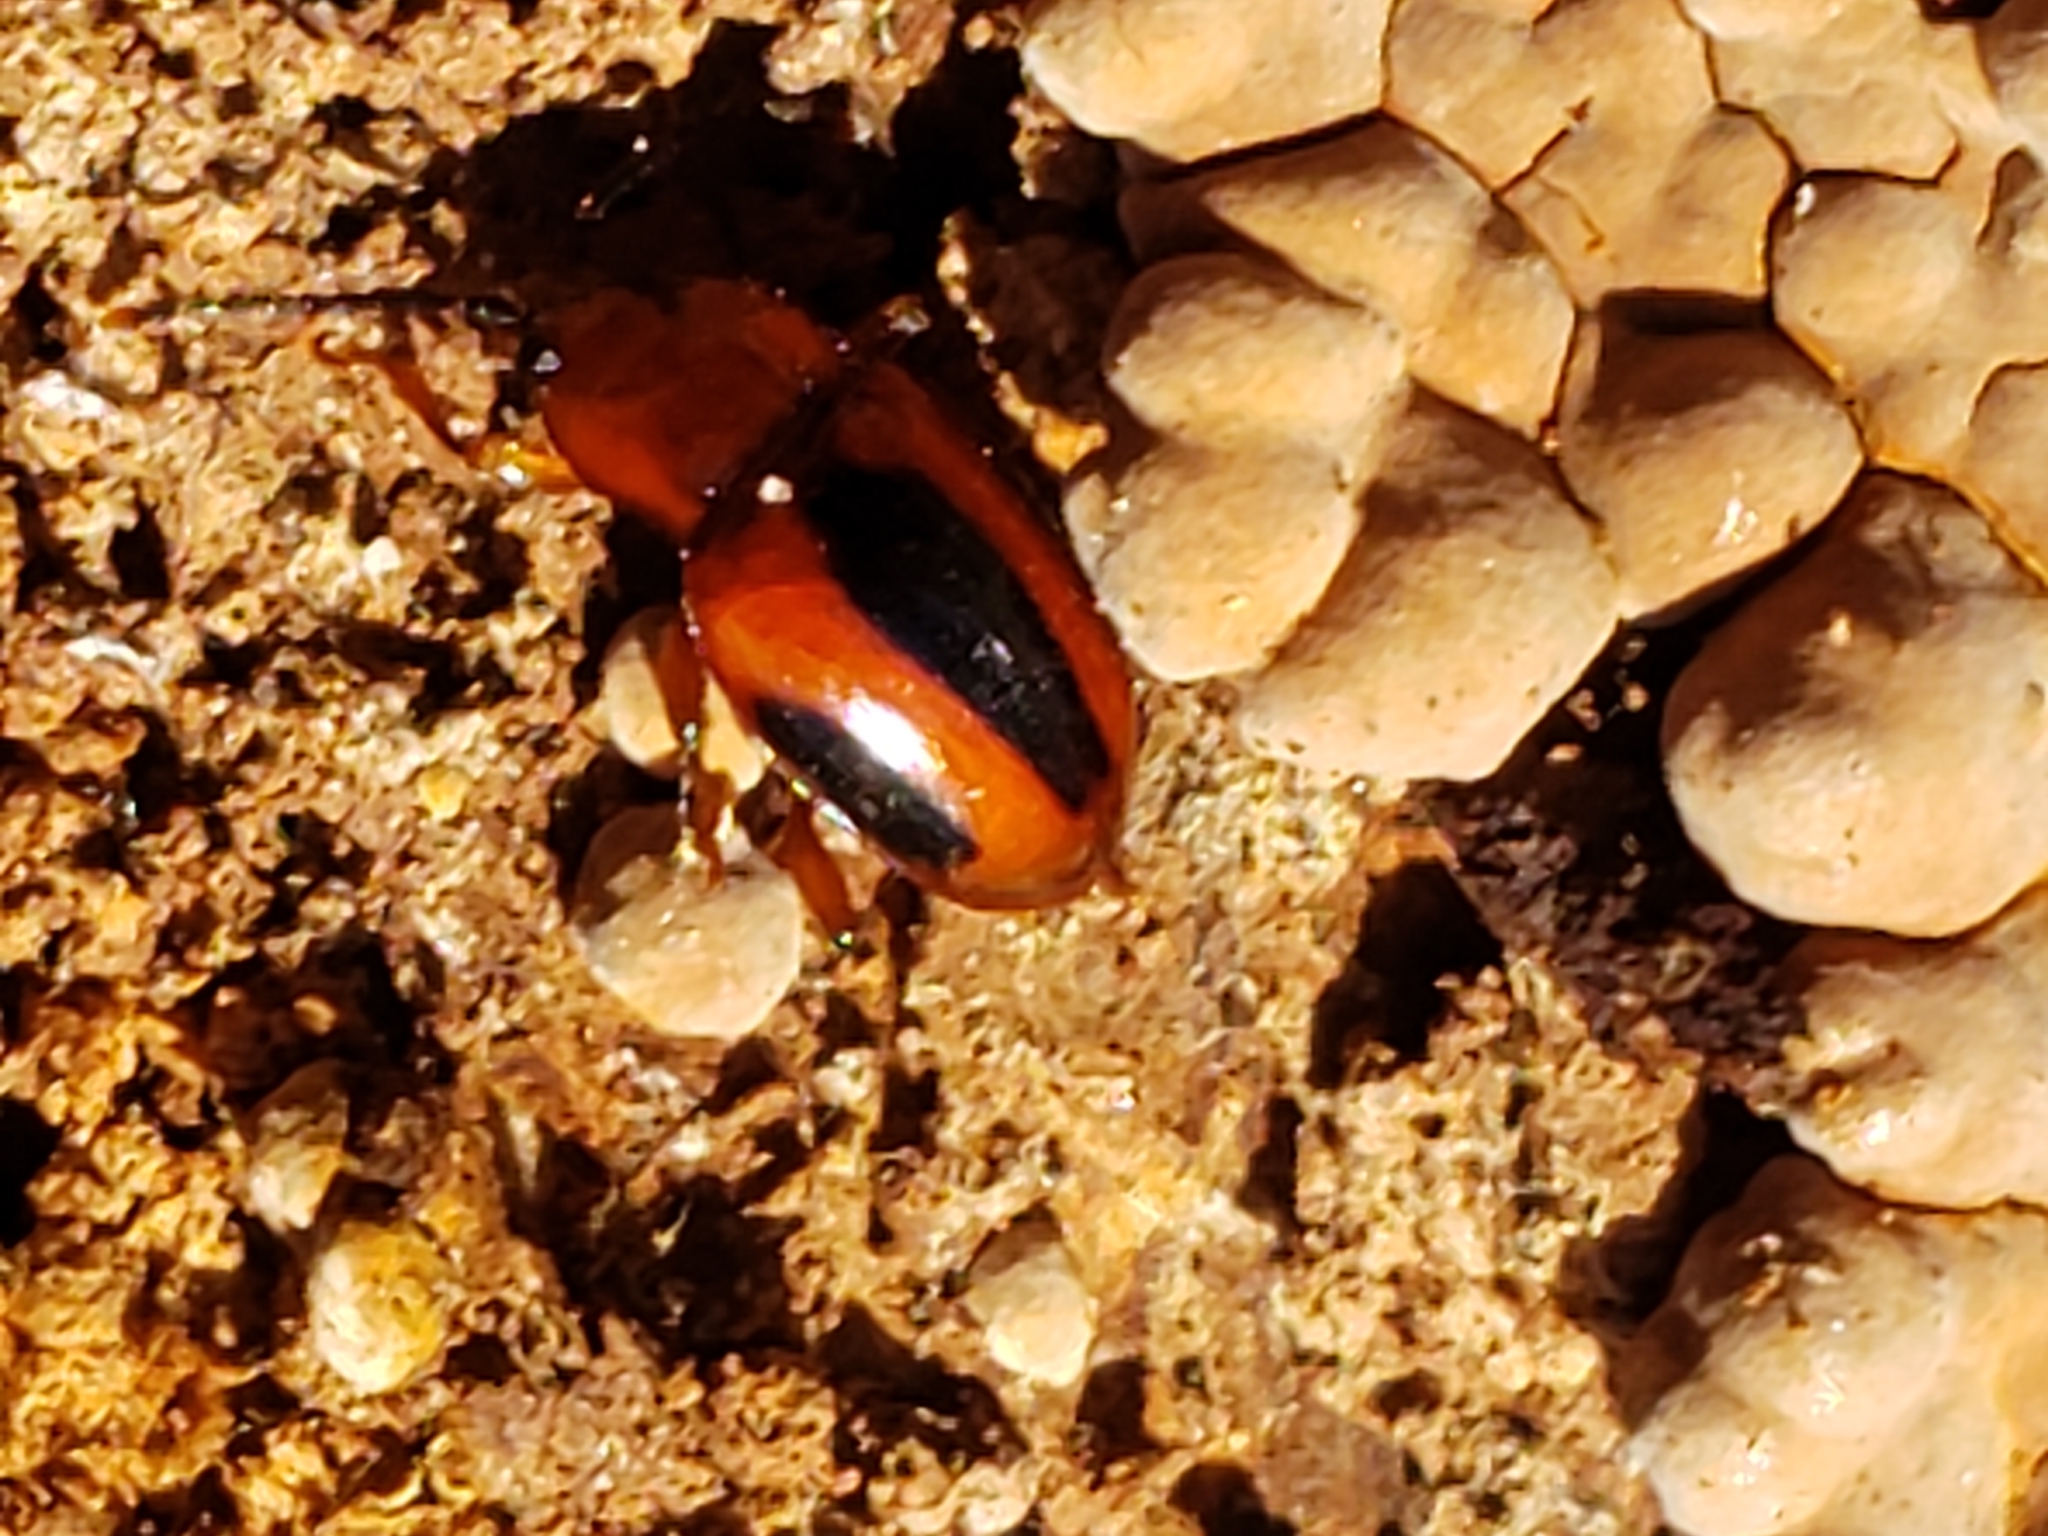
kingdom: Animalia
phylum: Arthropoda
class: Insecta
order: Coleoptera
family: Endomychidae
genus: Aphorista
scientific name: Aphorista vittata
